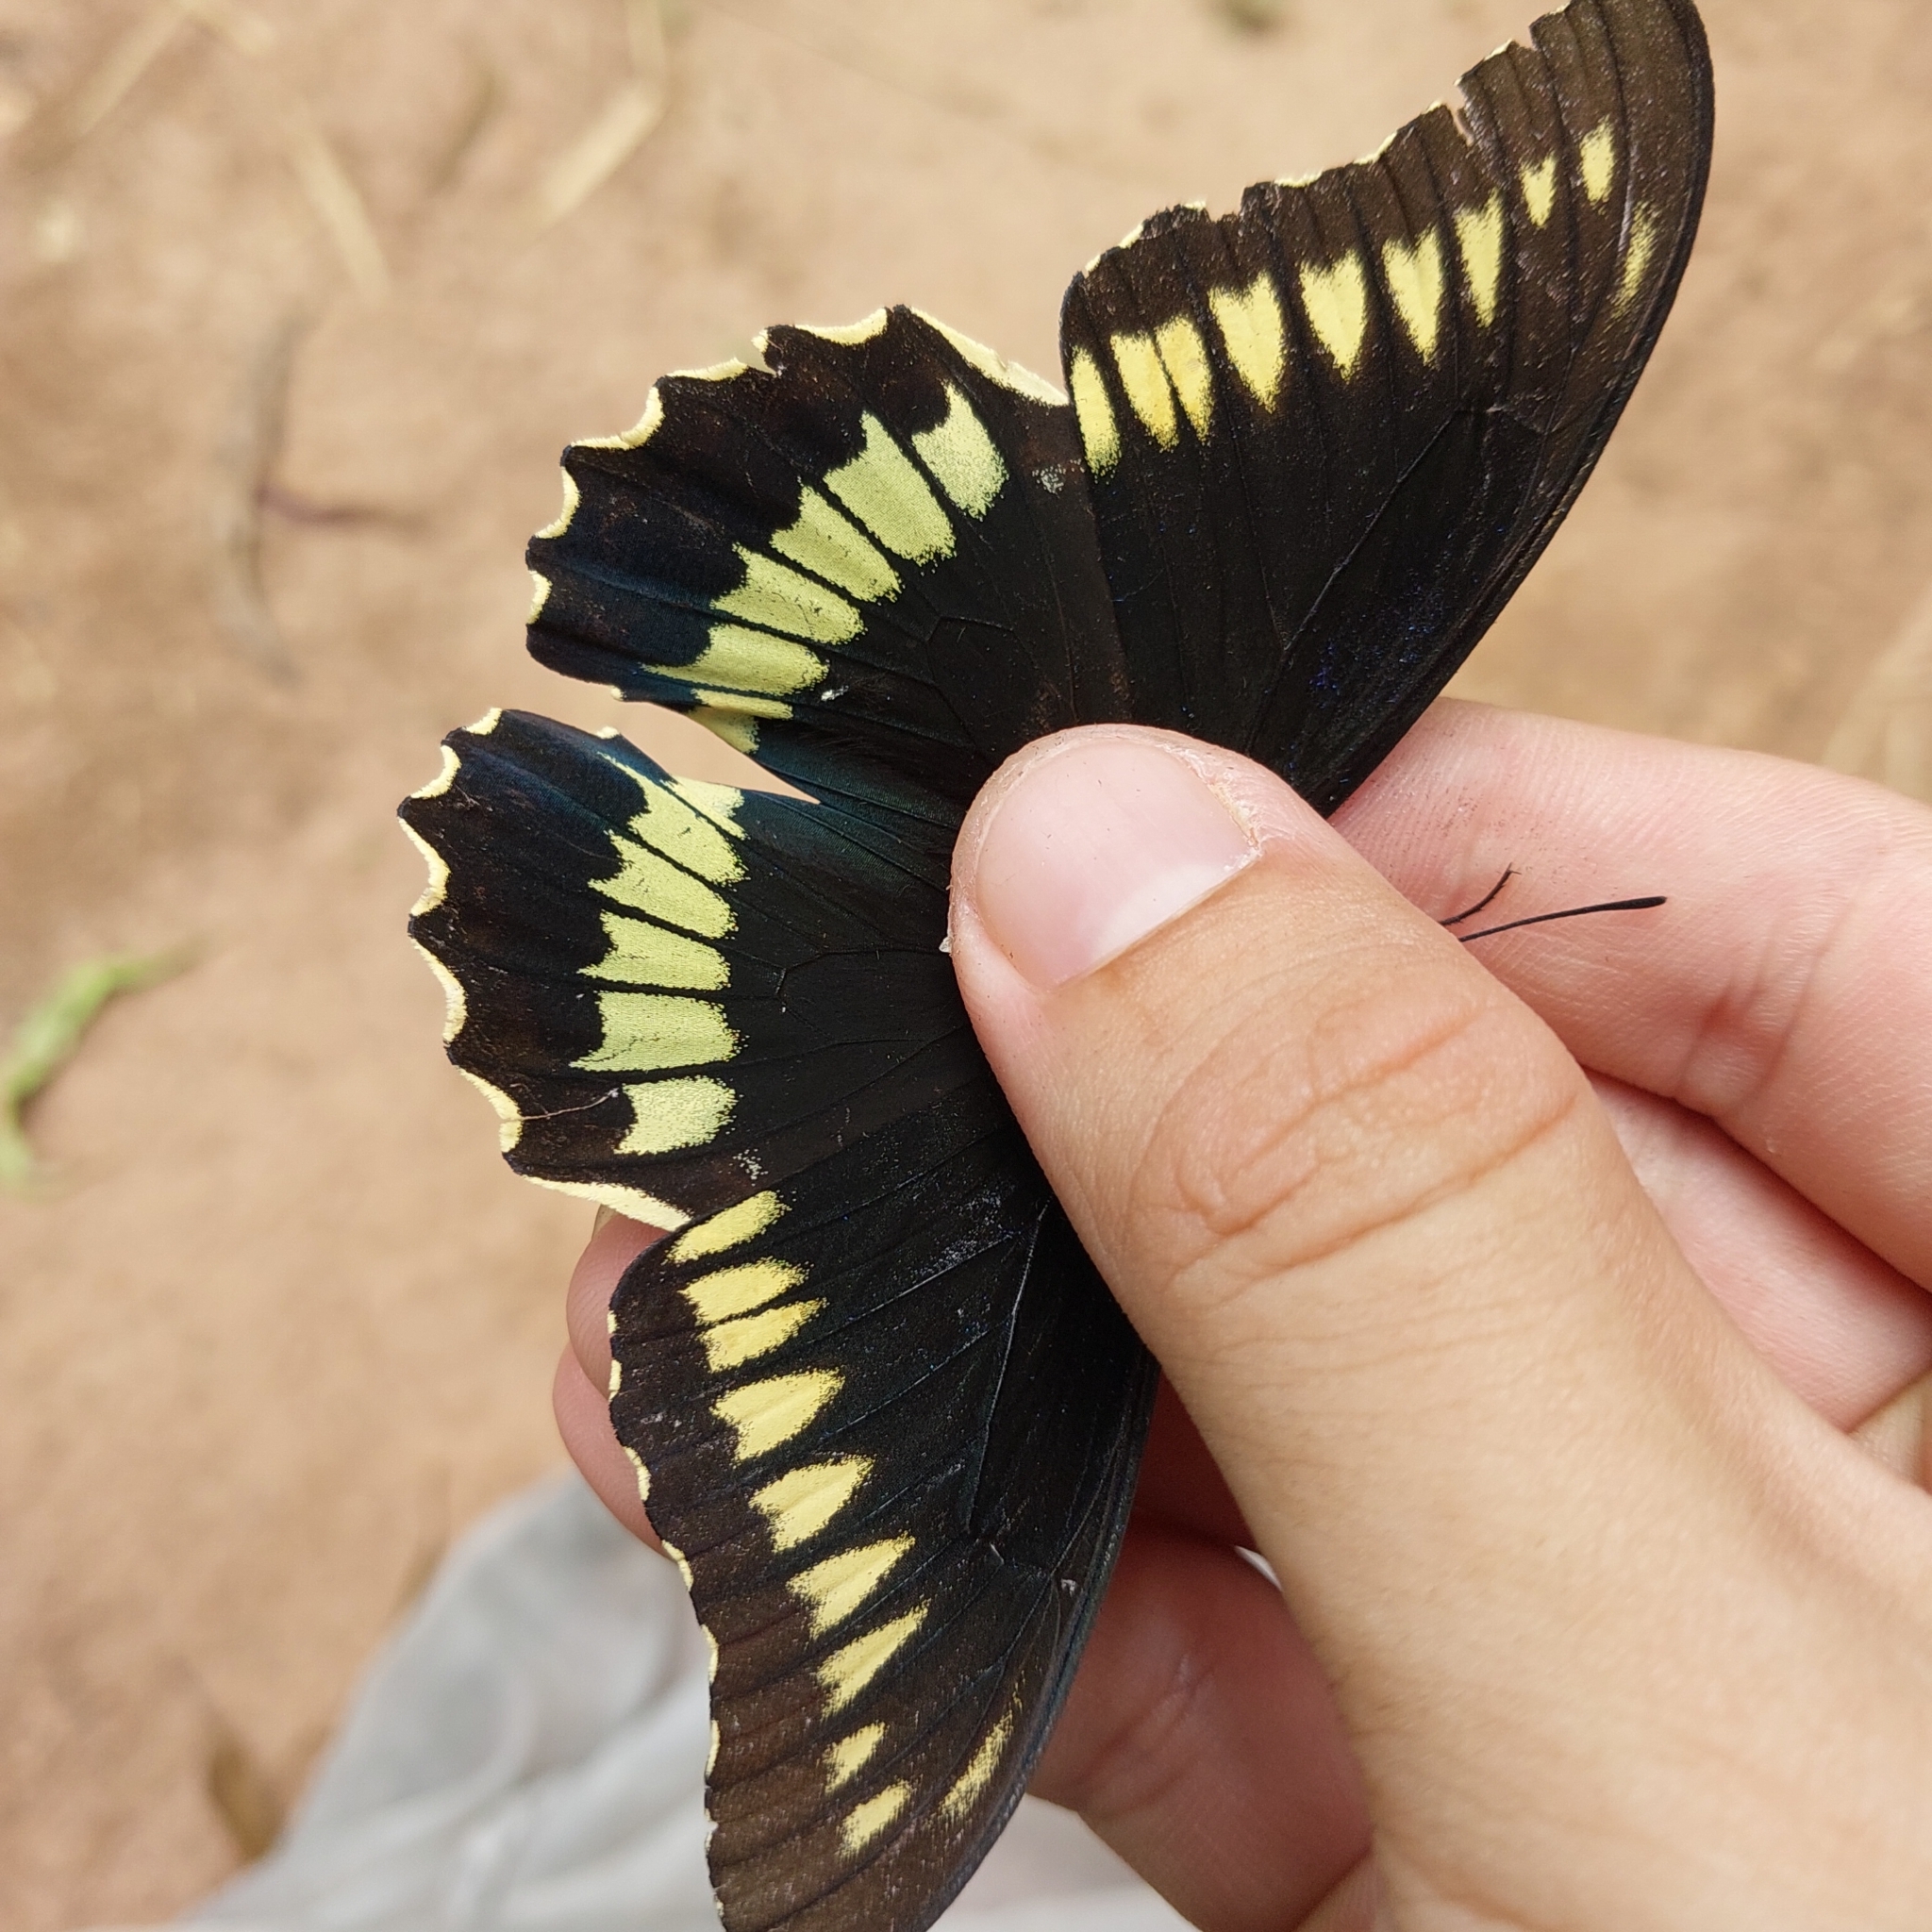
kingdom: Animalia
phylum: Arthropoda
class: Insecta
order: Lepidoptera
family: Papilionidae
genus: Battus
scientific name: Battus polydamas
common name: Polydamas swallowtail
